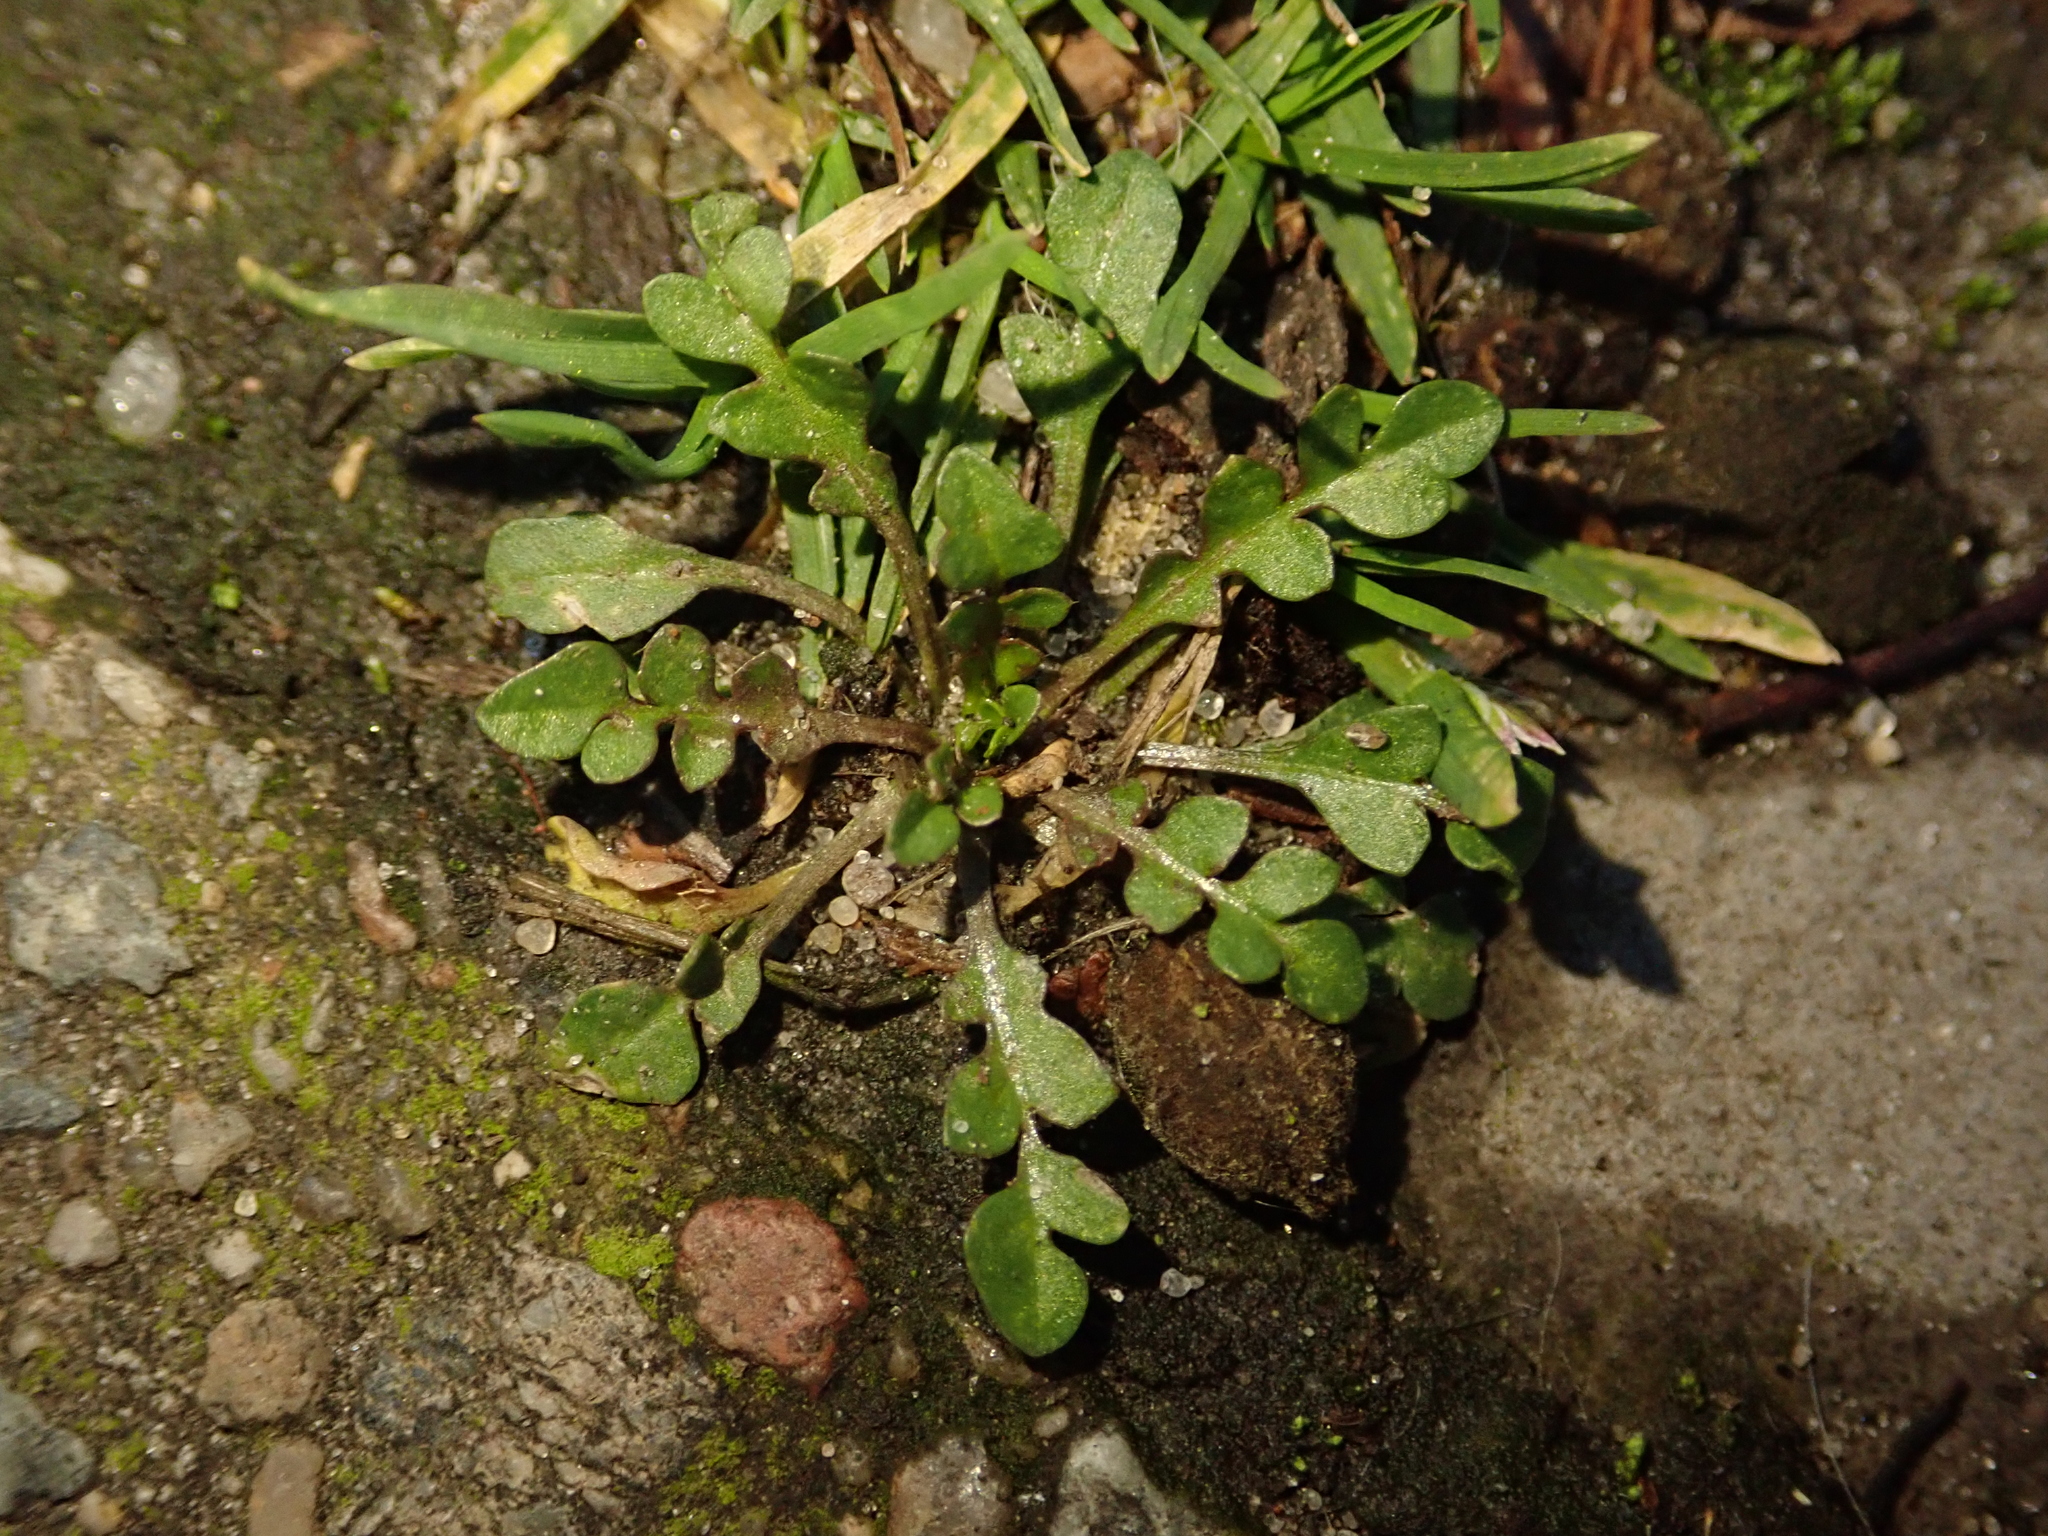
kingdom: Plantae
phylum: Tracheophyta
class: Magnoliopsida
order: Brassicales
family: Brassicaceae
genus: Capsella
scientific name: Capsella bursa-pastoris
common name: Shepherd's purse
